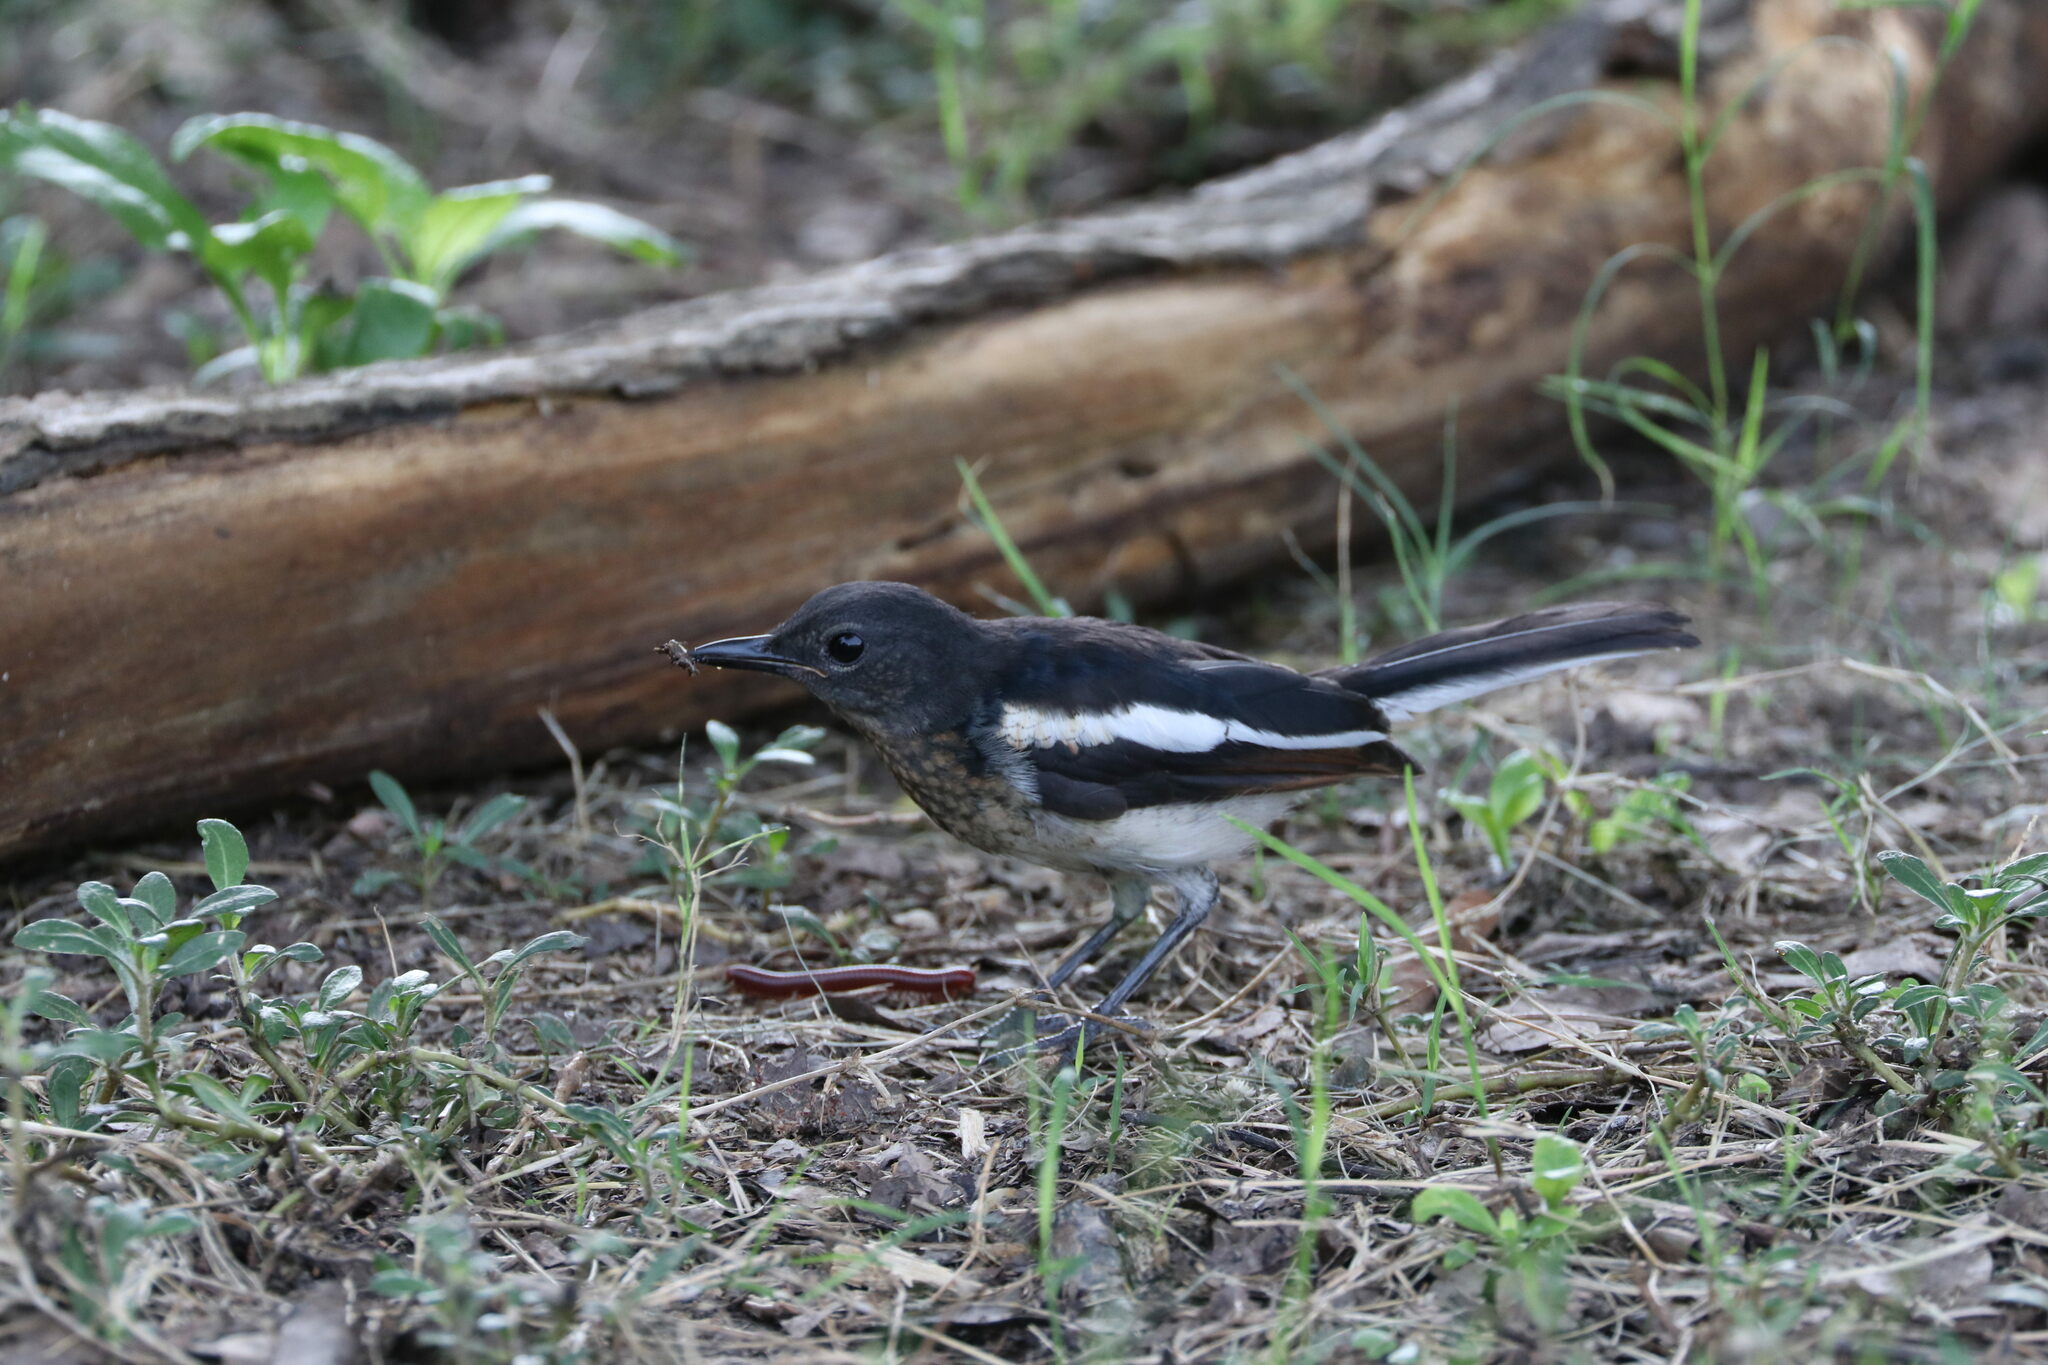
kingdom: Animalia
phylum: Chordata
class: Aves
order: Passeriformes
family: Muscicapidae
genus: Copsychus
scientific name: Copsychus saularis
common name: Oriental magpie-robin
